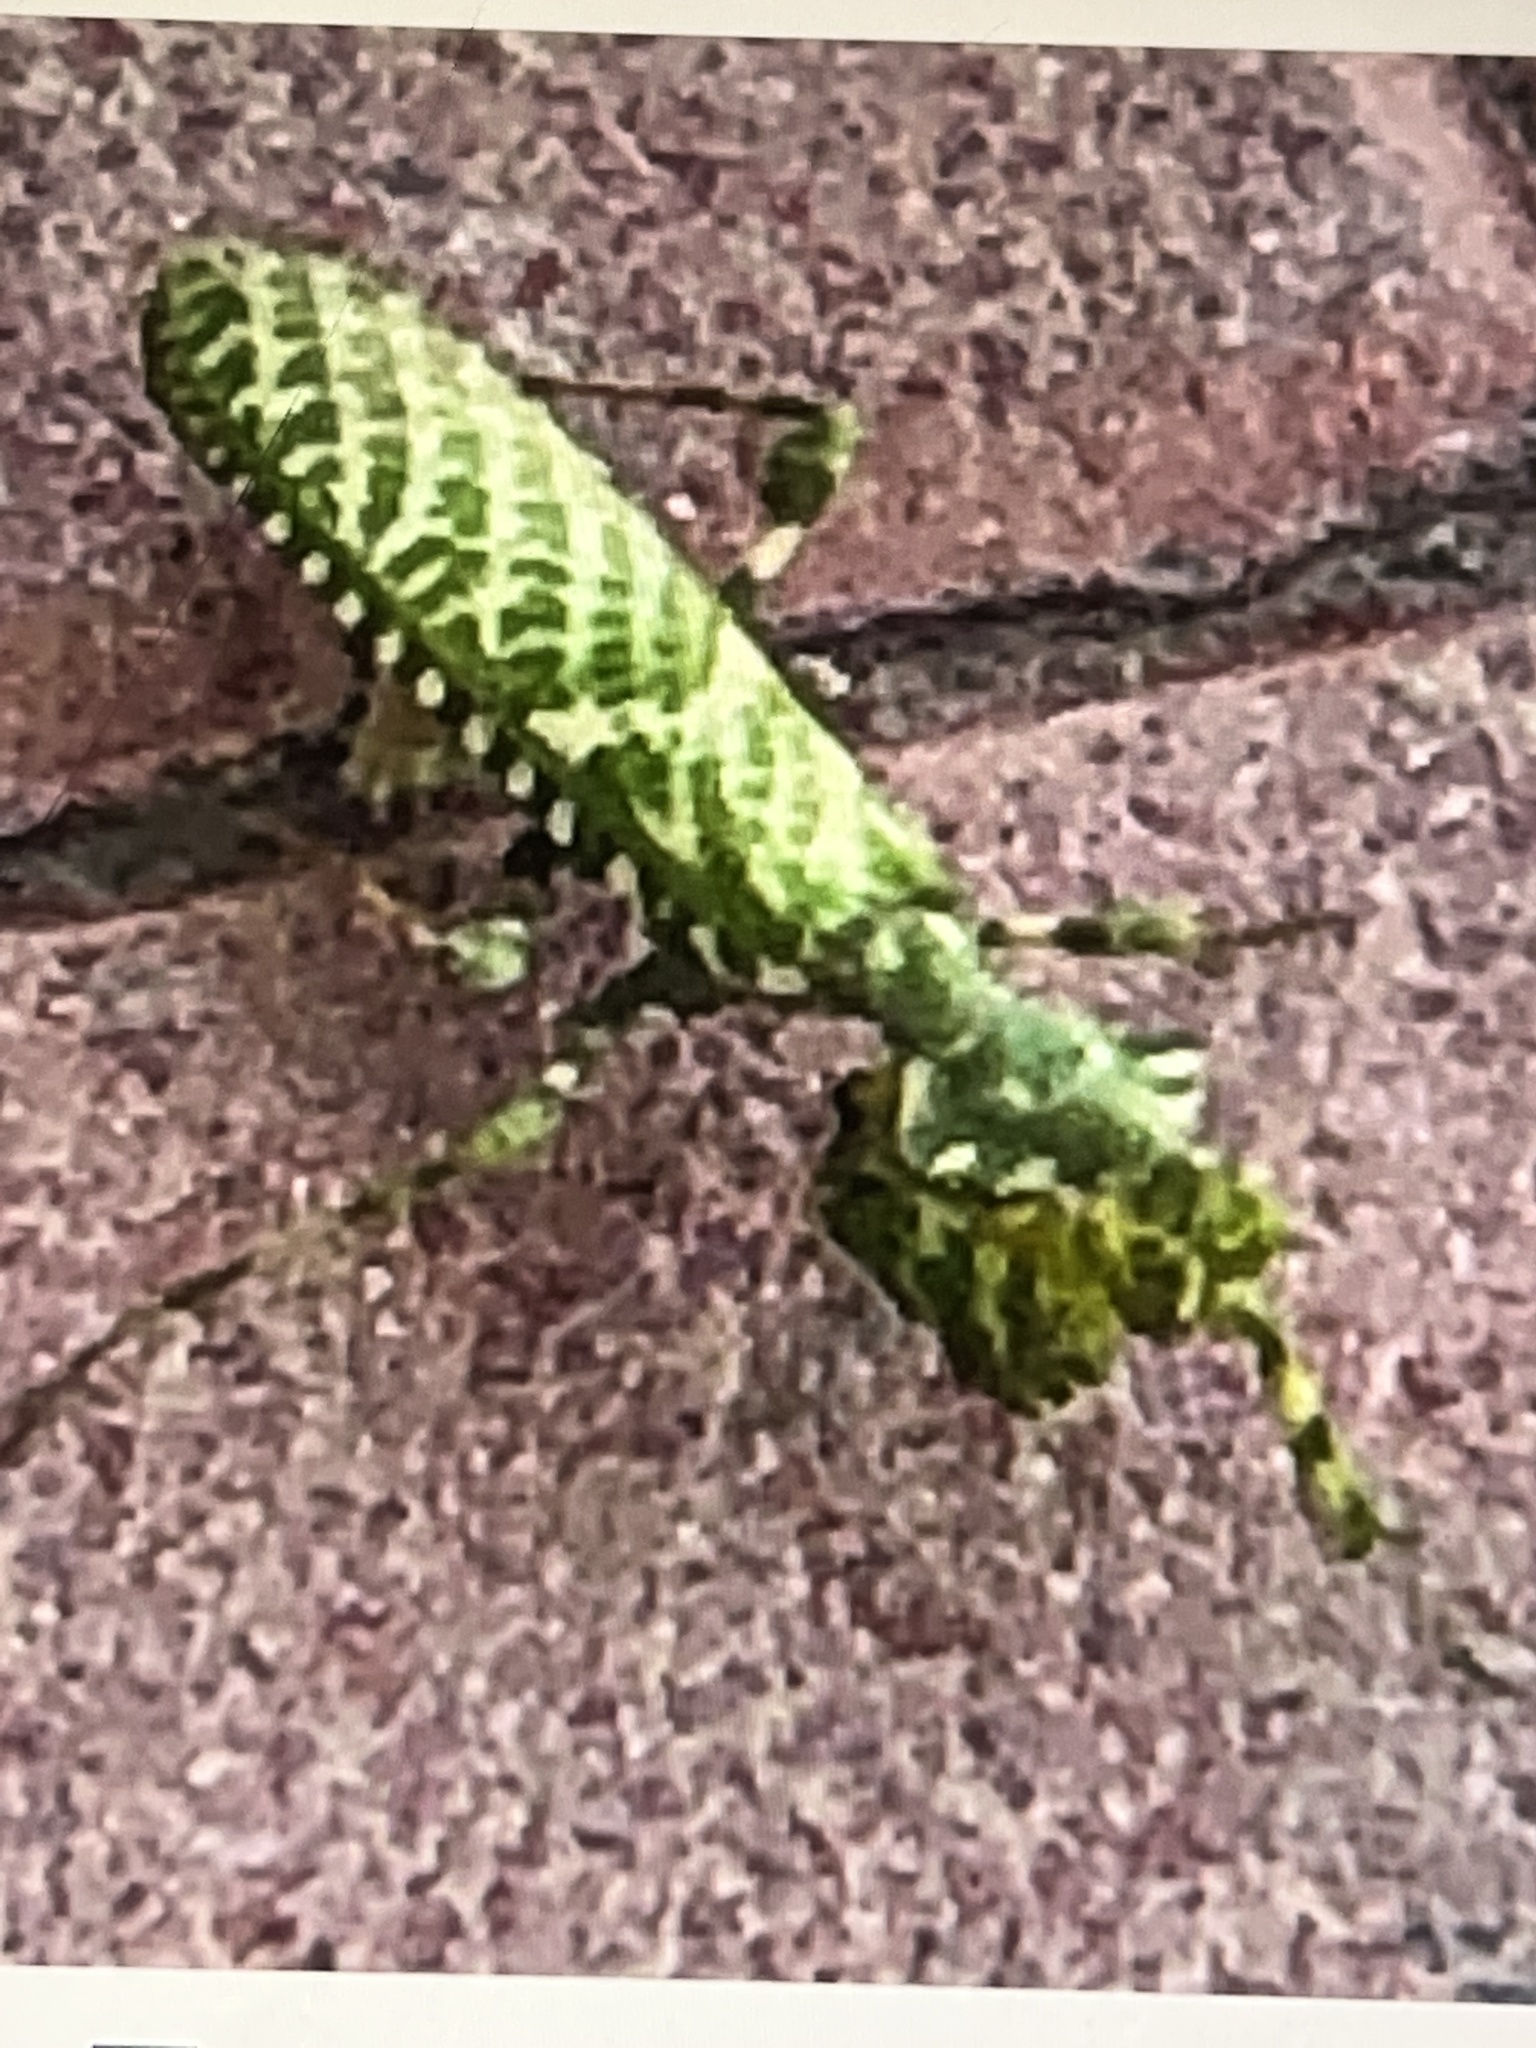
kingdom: Animalia
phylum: Arthropoda
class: Insecta
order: Mantodea
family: Empusidae
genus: Blepharopsis
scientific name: Blepharopsis mendica
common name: Devil's flower mantis
